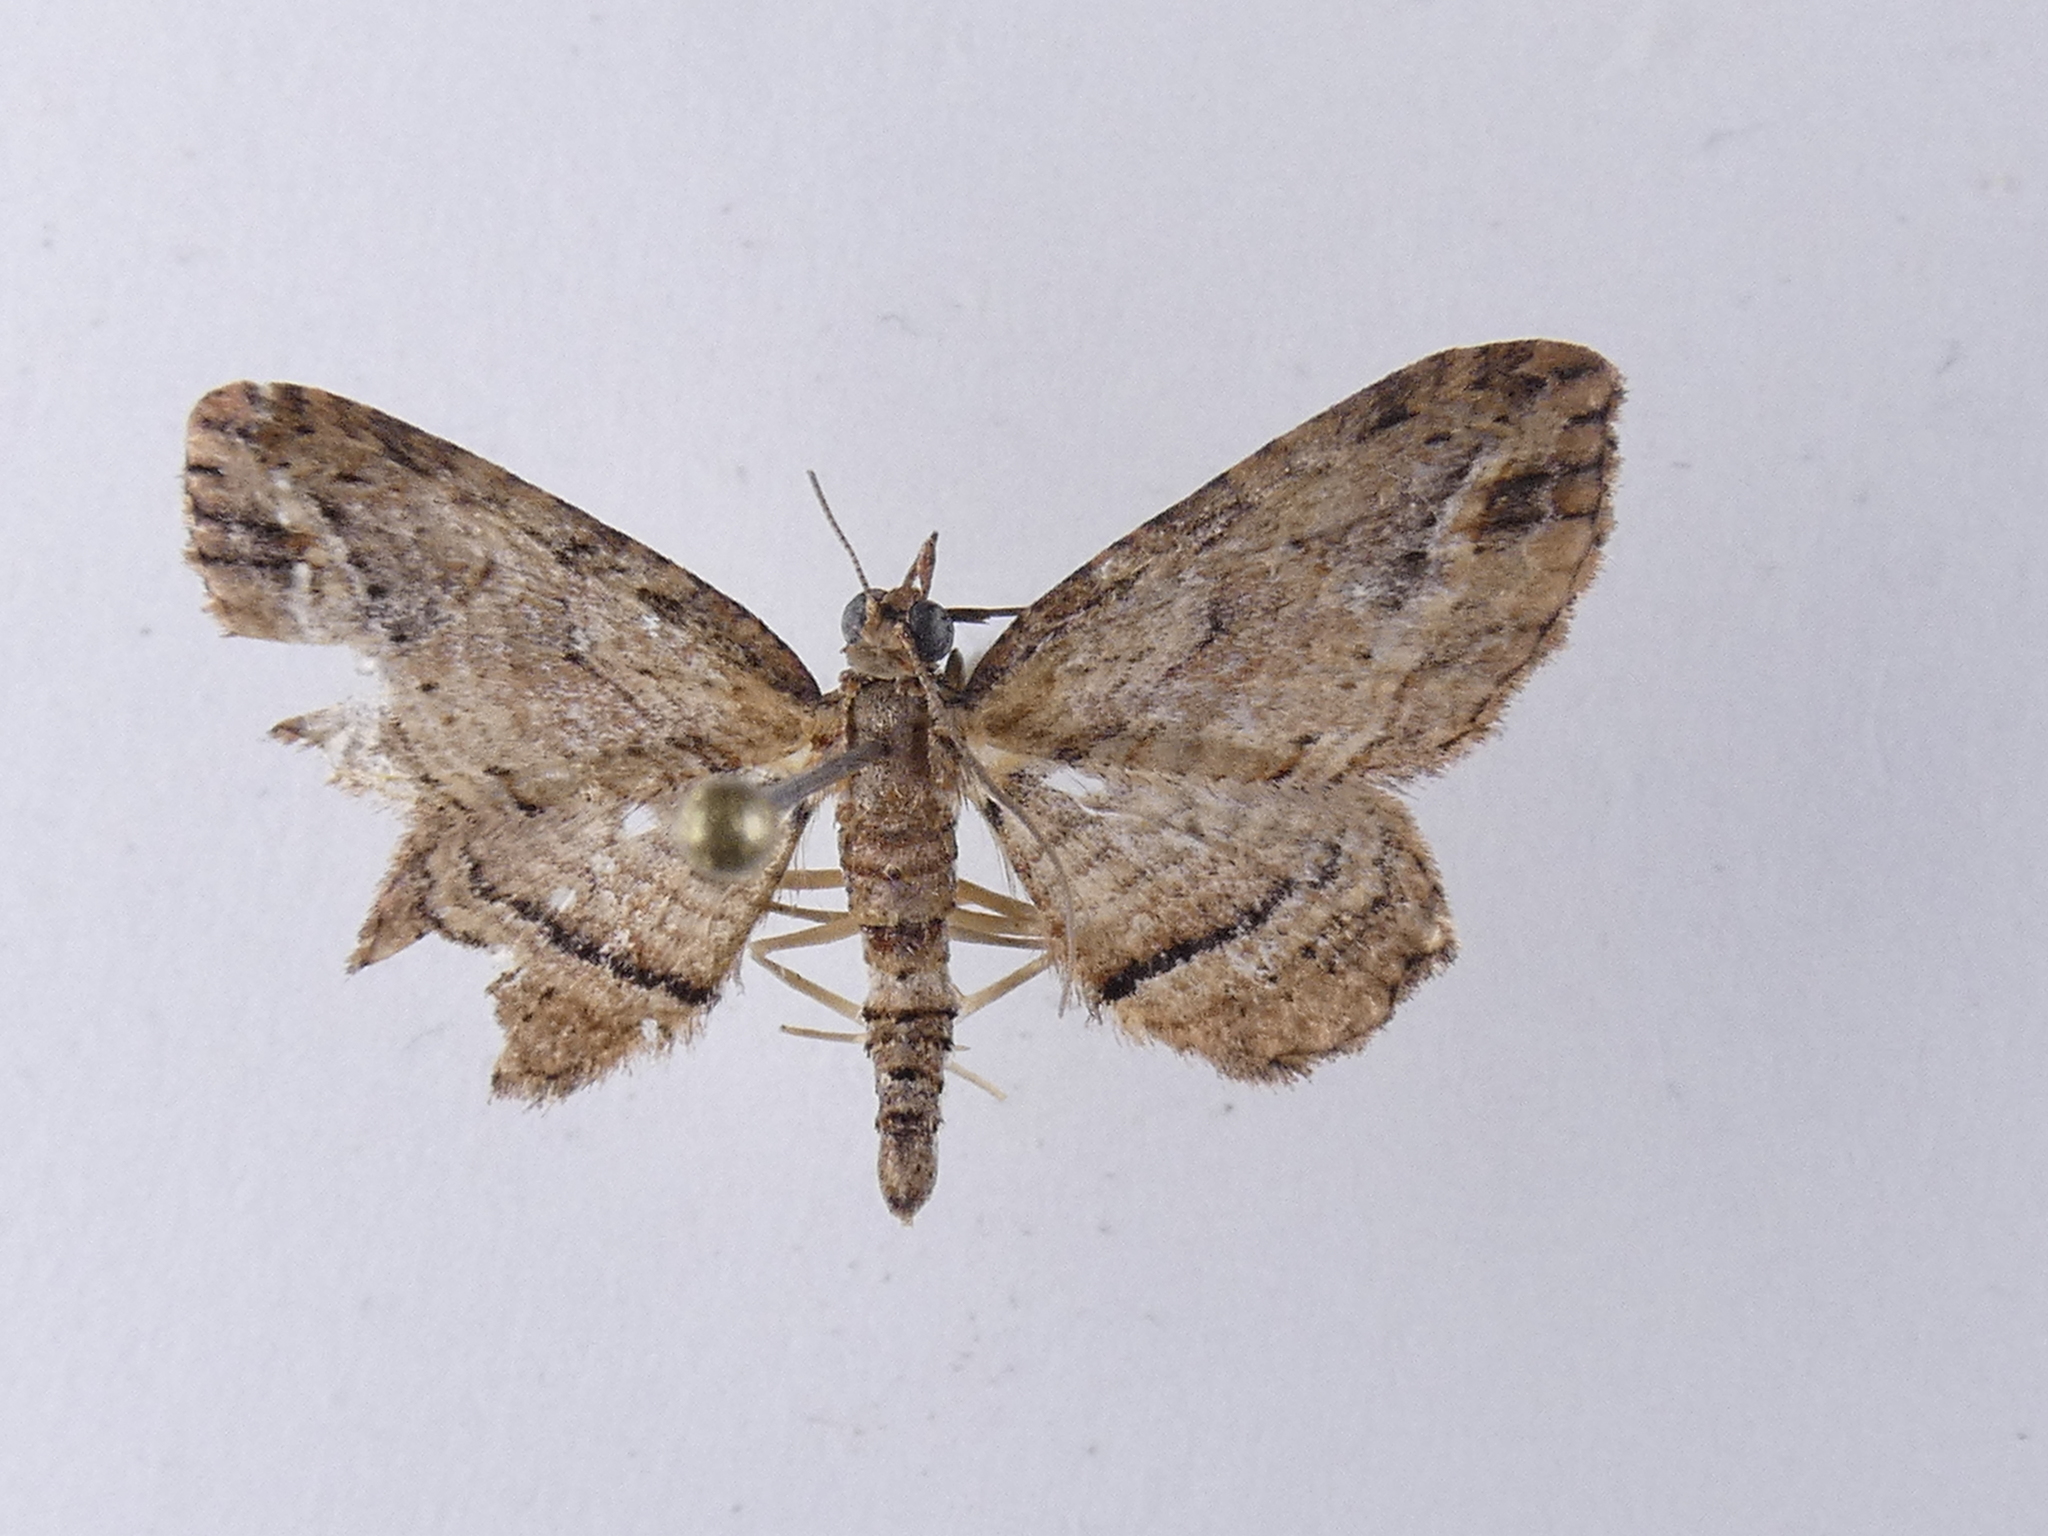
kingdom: Animalia
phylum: Arthropoda
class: Insecta
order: Lepidoptera
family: Geometridae
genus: Chloroclystis
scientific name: Chloroclystis filata
